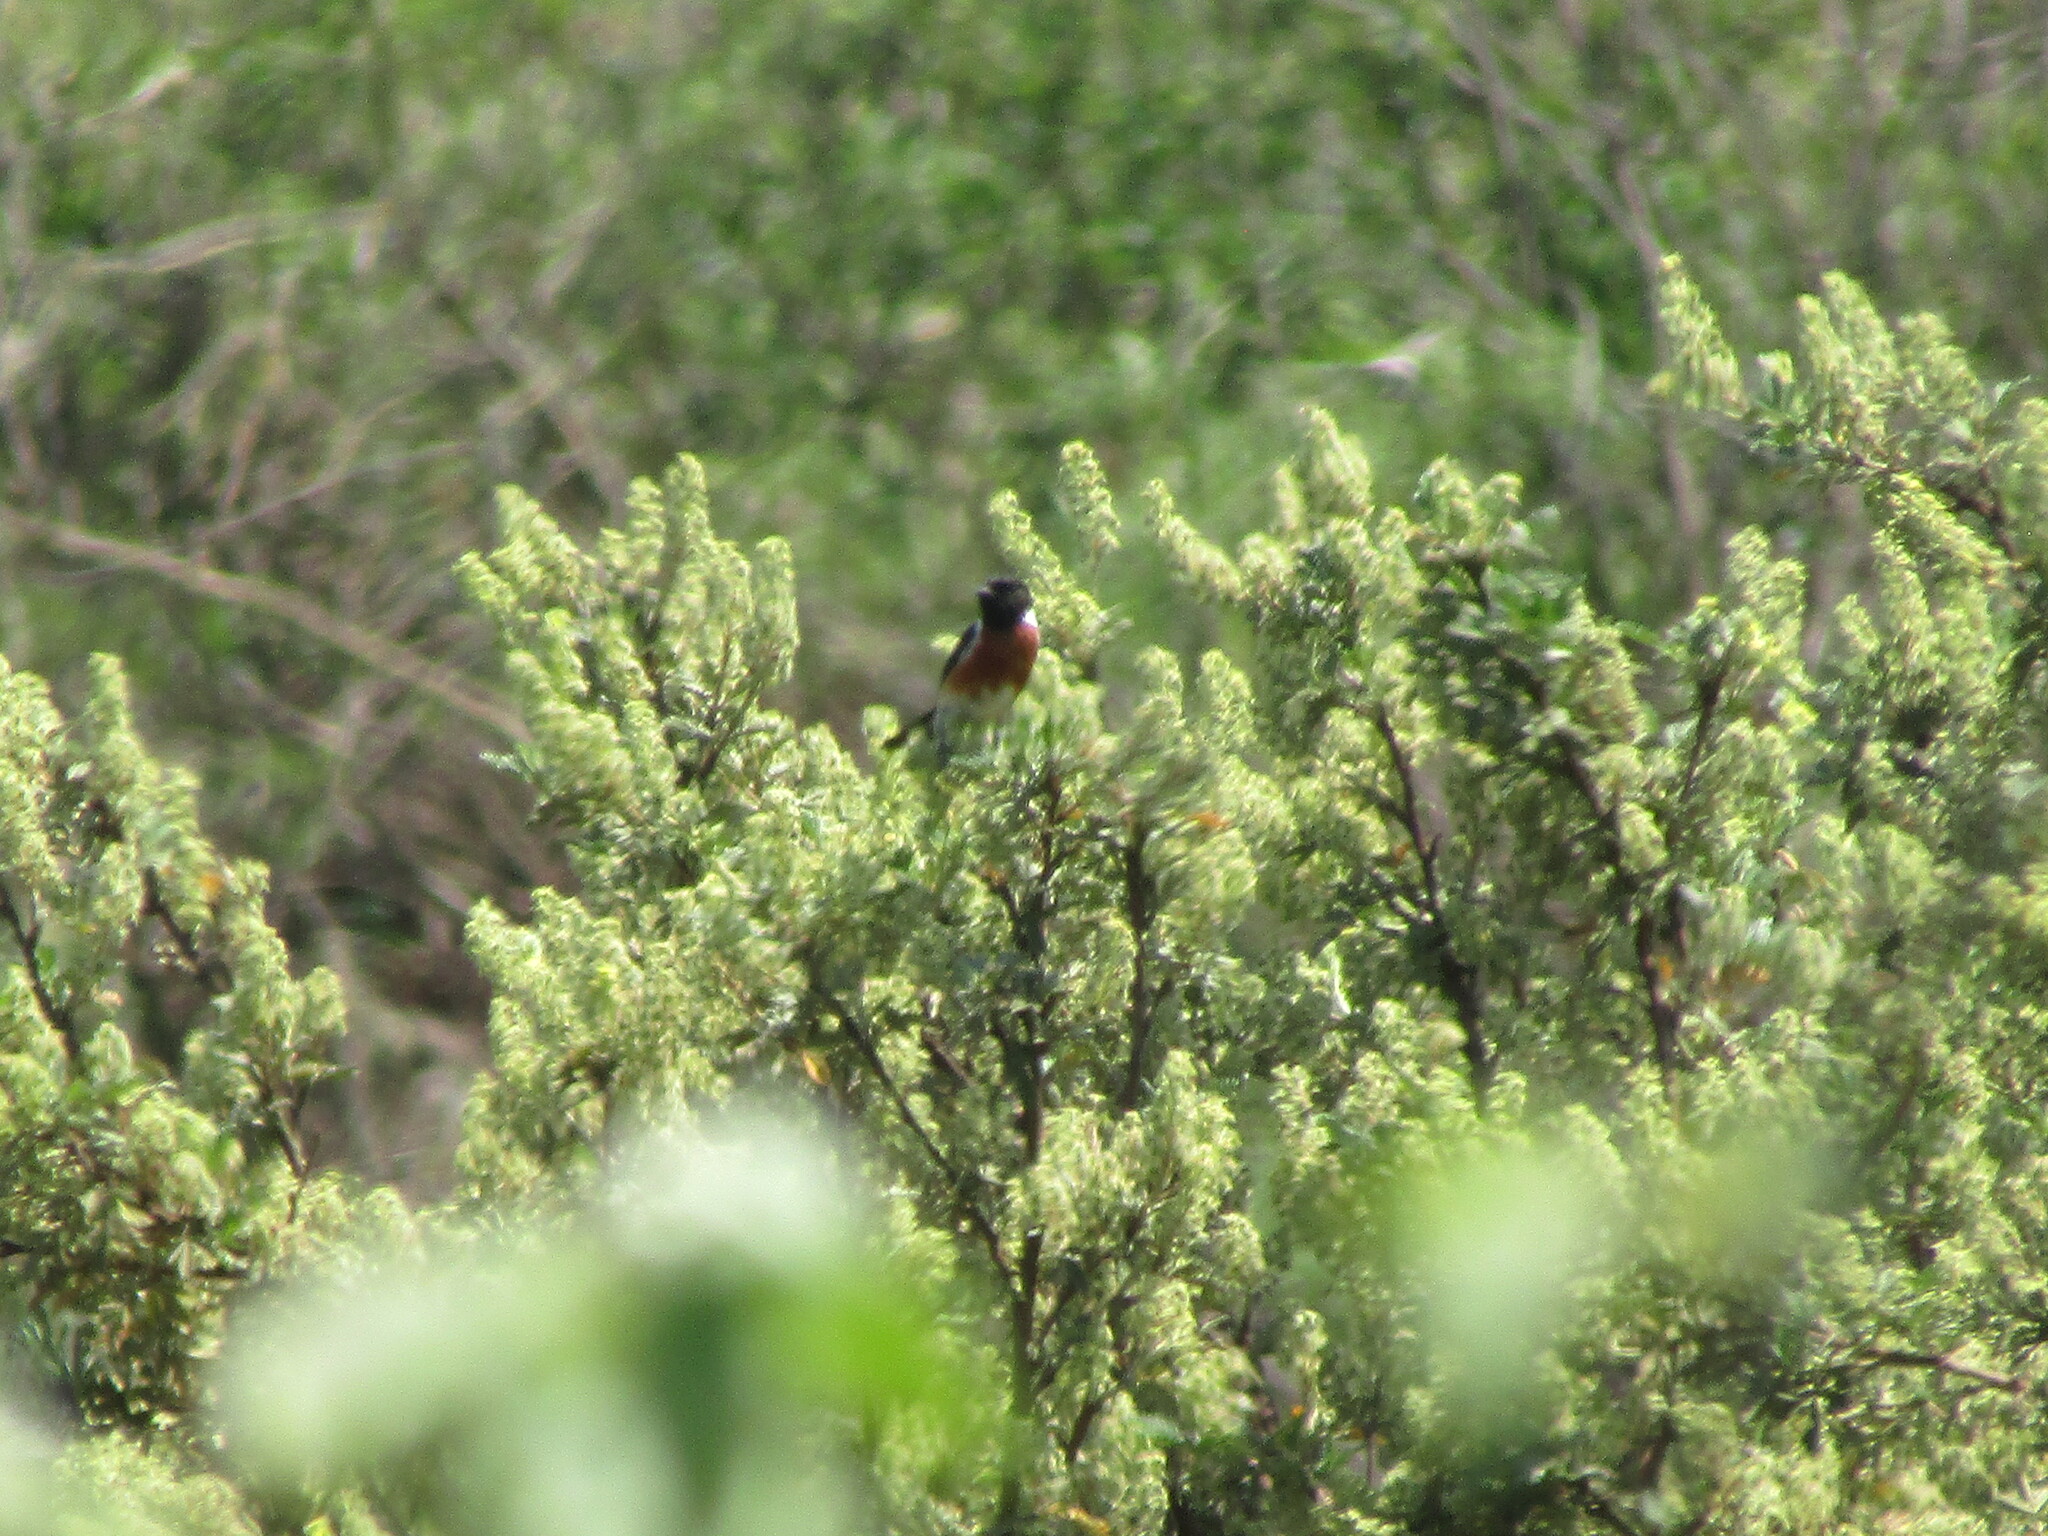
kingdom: Animalia
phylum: Chordata
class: Aves
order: Passeriformes
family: Muscicapidae
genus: Saxicola
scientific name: Saxicola torquatus
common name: African stonechat
